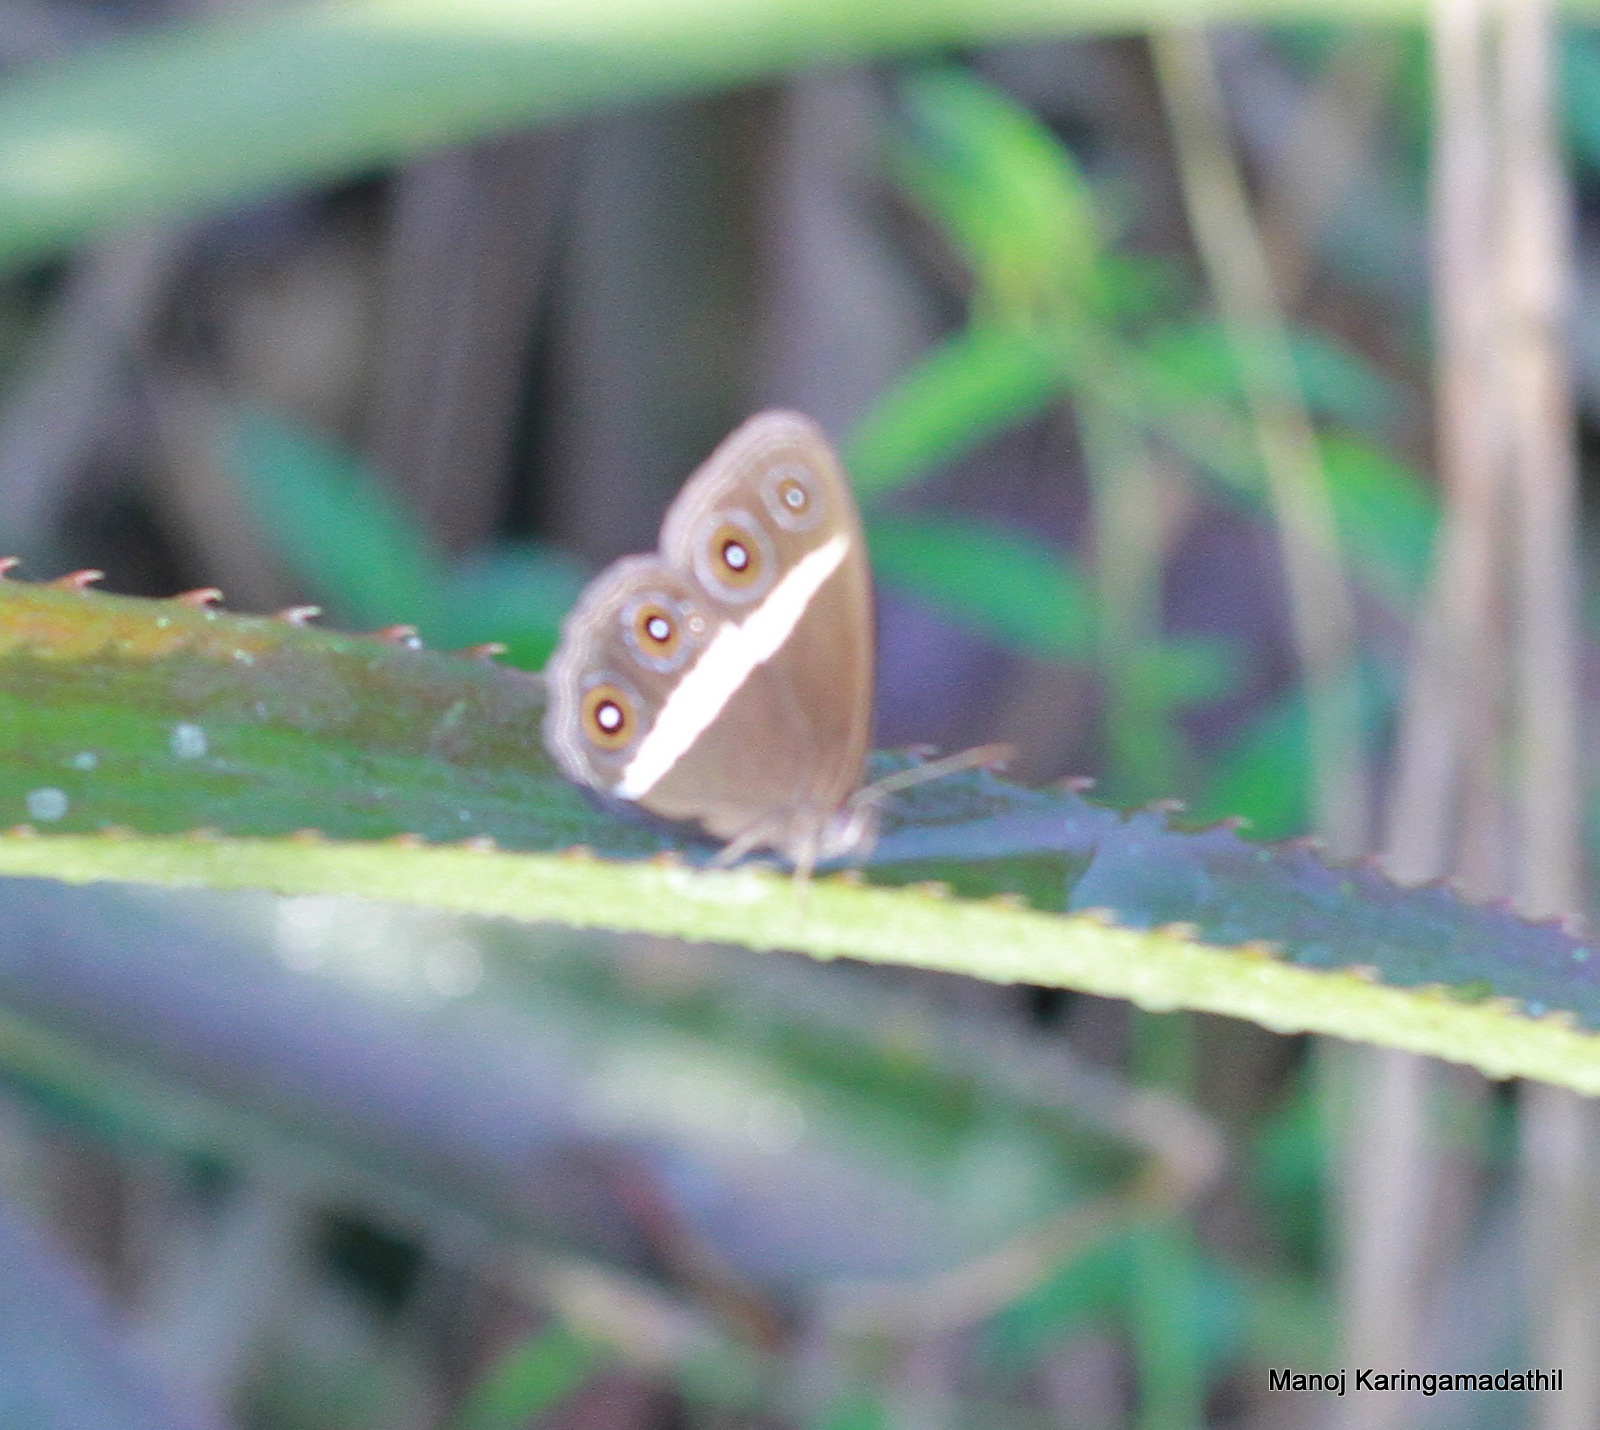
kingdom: Animalia
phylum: Arthropoda
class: Insecta
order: Lepidoptera
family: Nymphalidae
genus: Orsotriaena
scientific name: Orsotriaena medus
